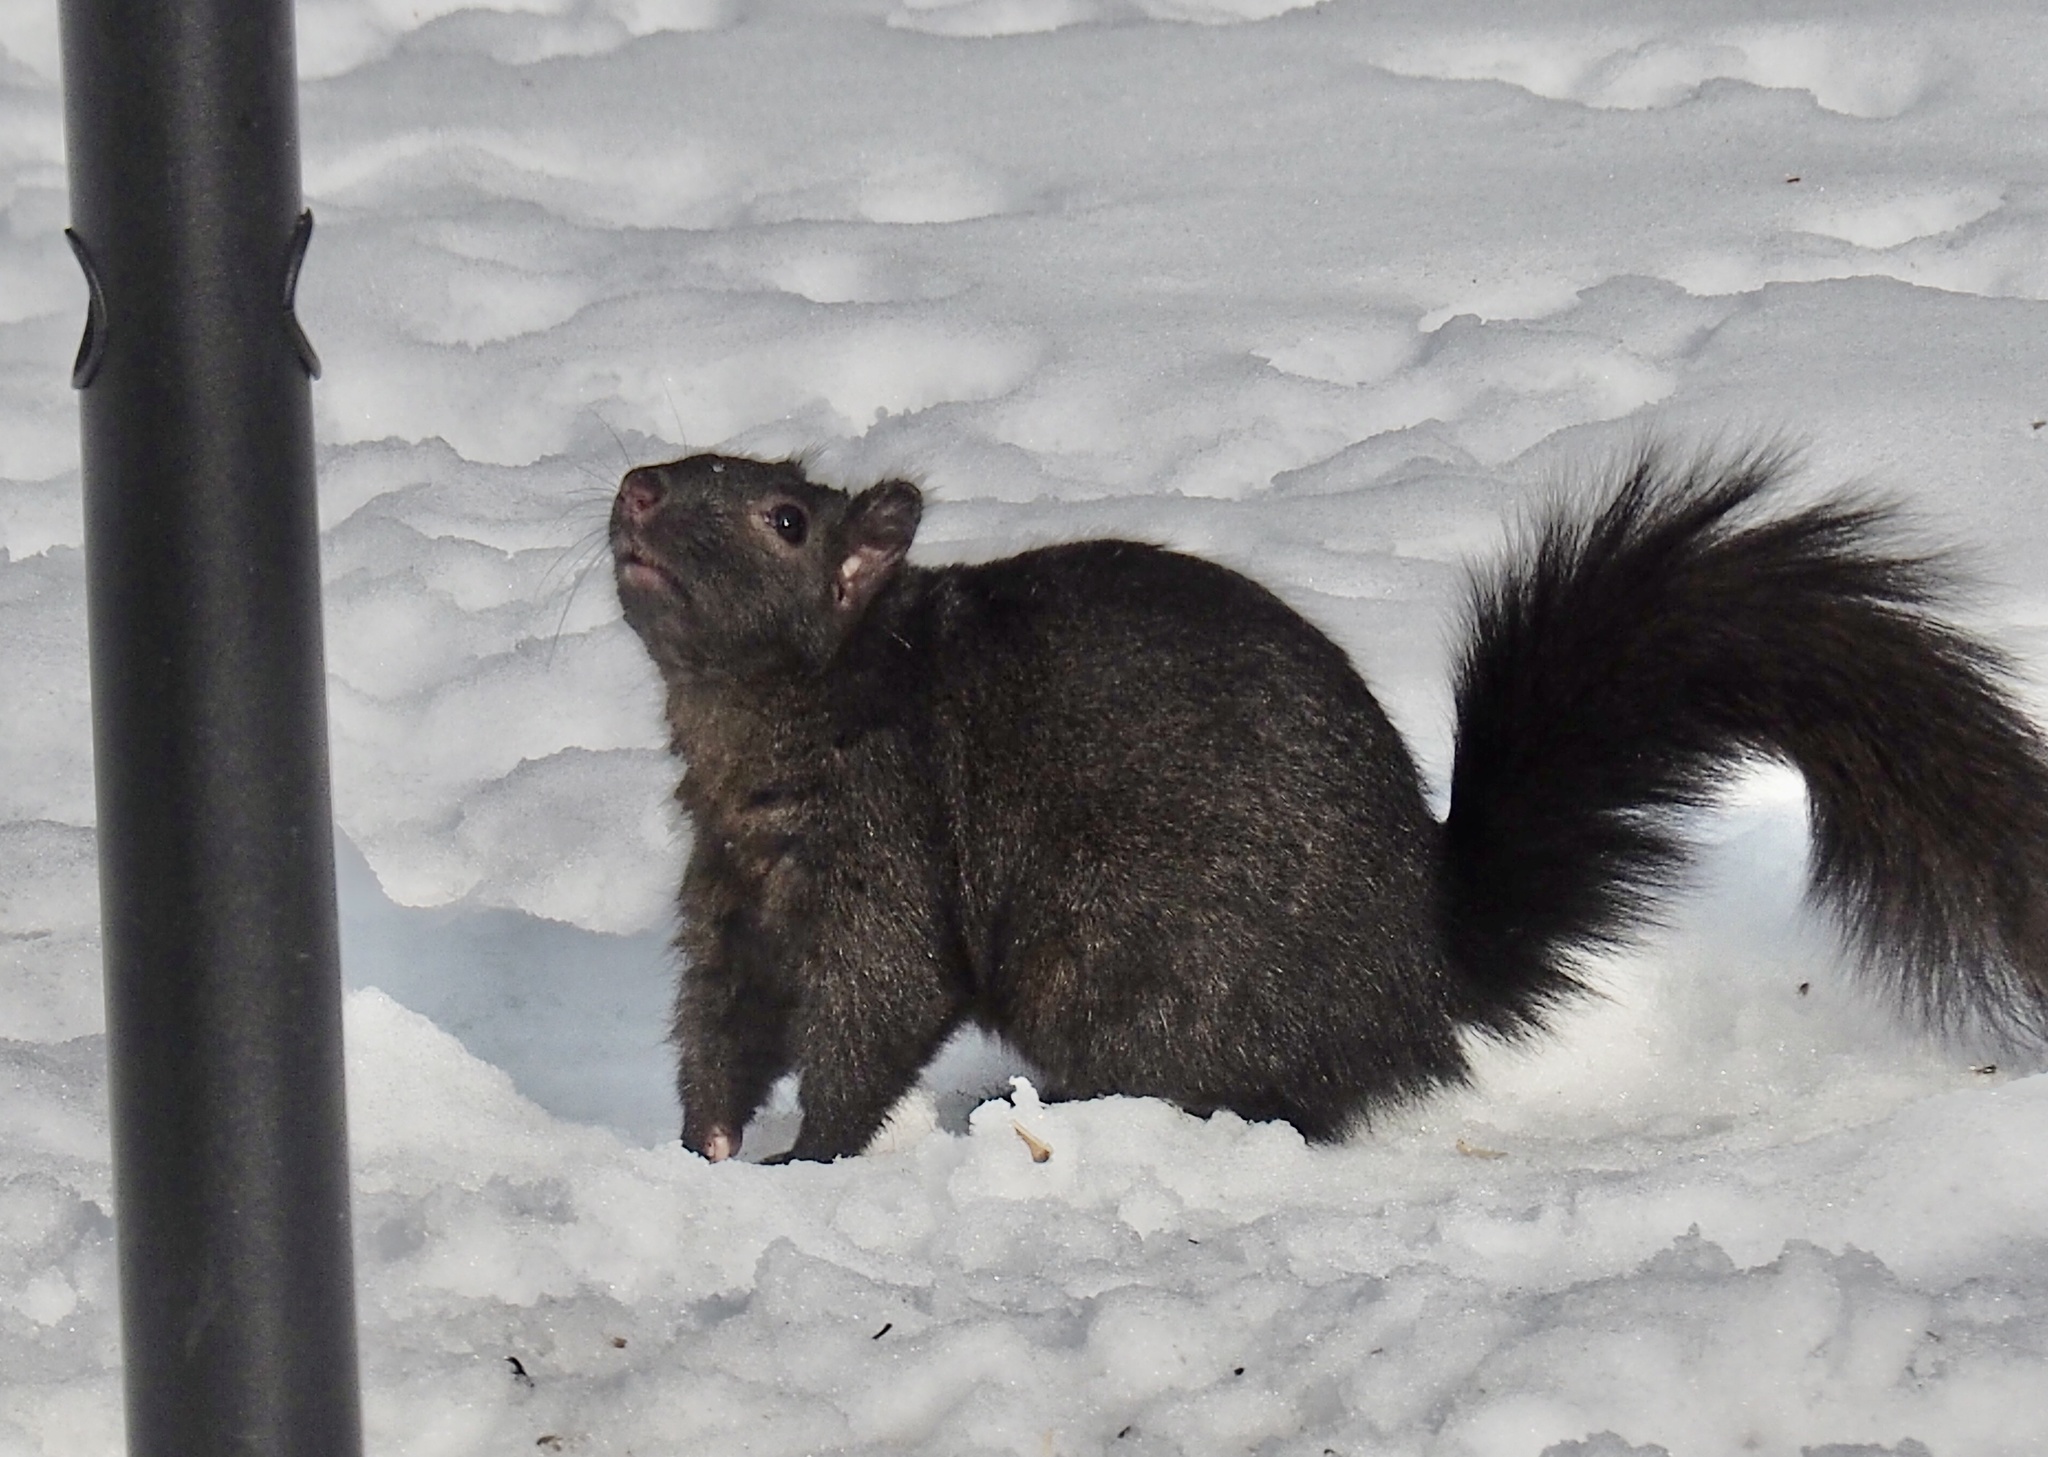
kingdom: Animalia
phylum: Chordata
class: Mammalia
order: Rodentia
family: Sciuridae
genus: Sciurus
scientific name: Sciurus carolinensis
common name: Eastern gray squirrel
